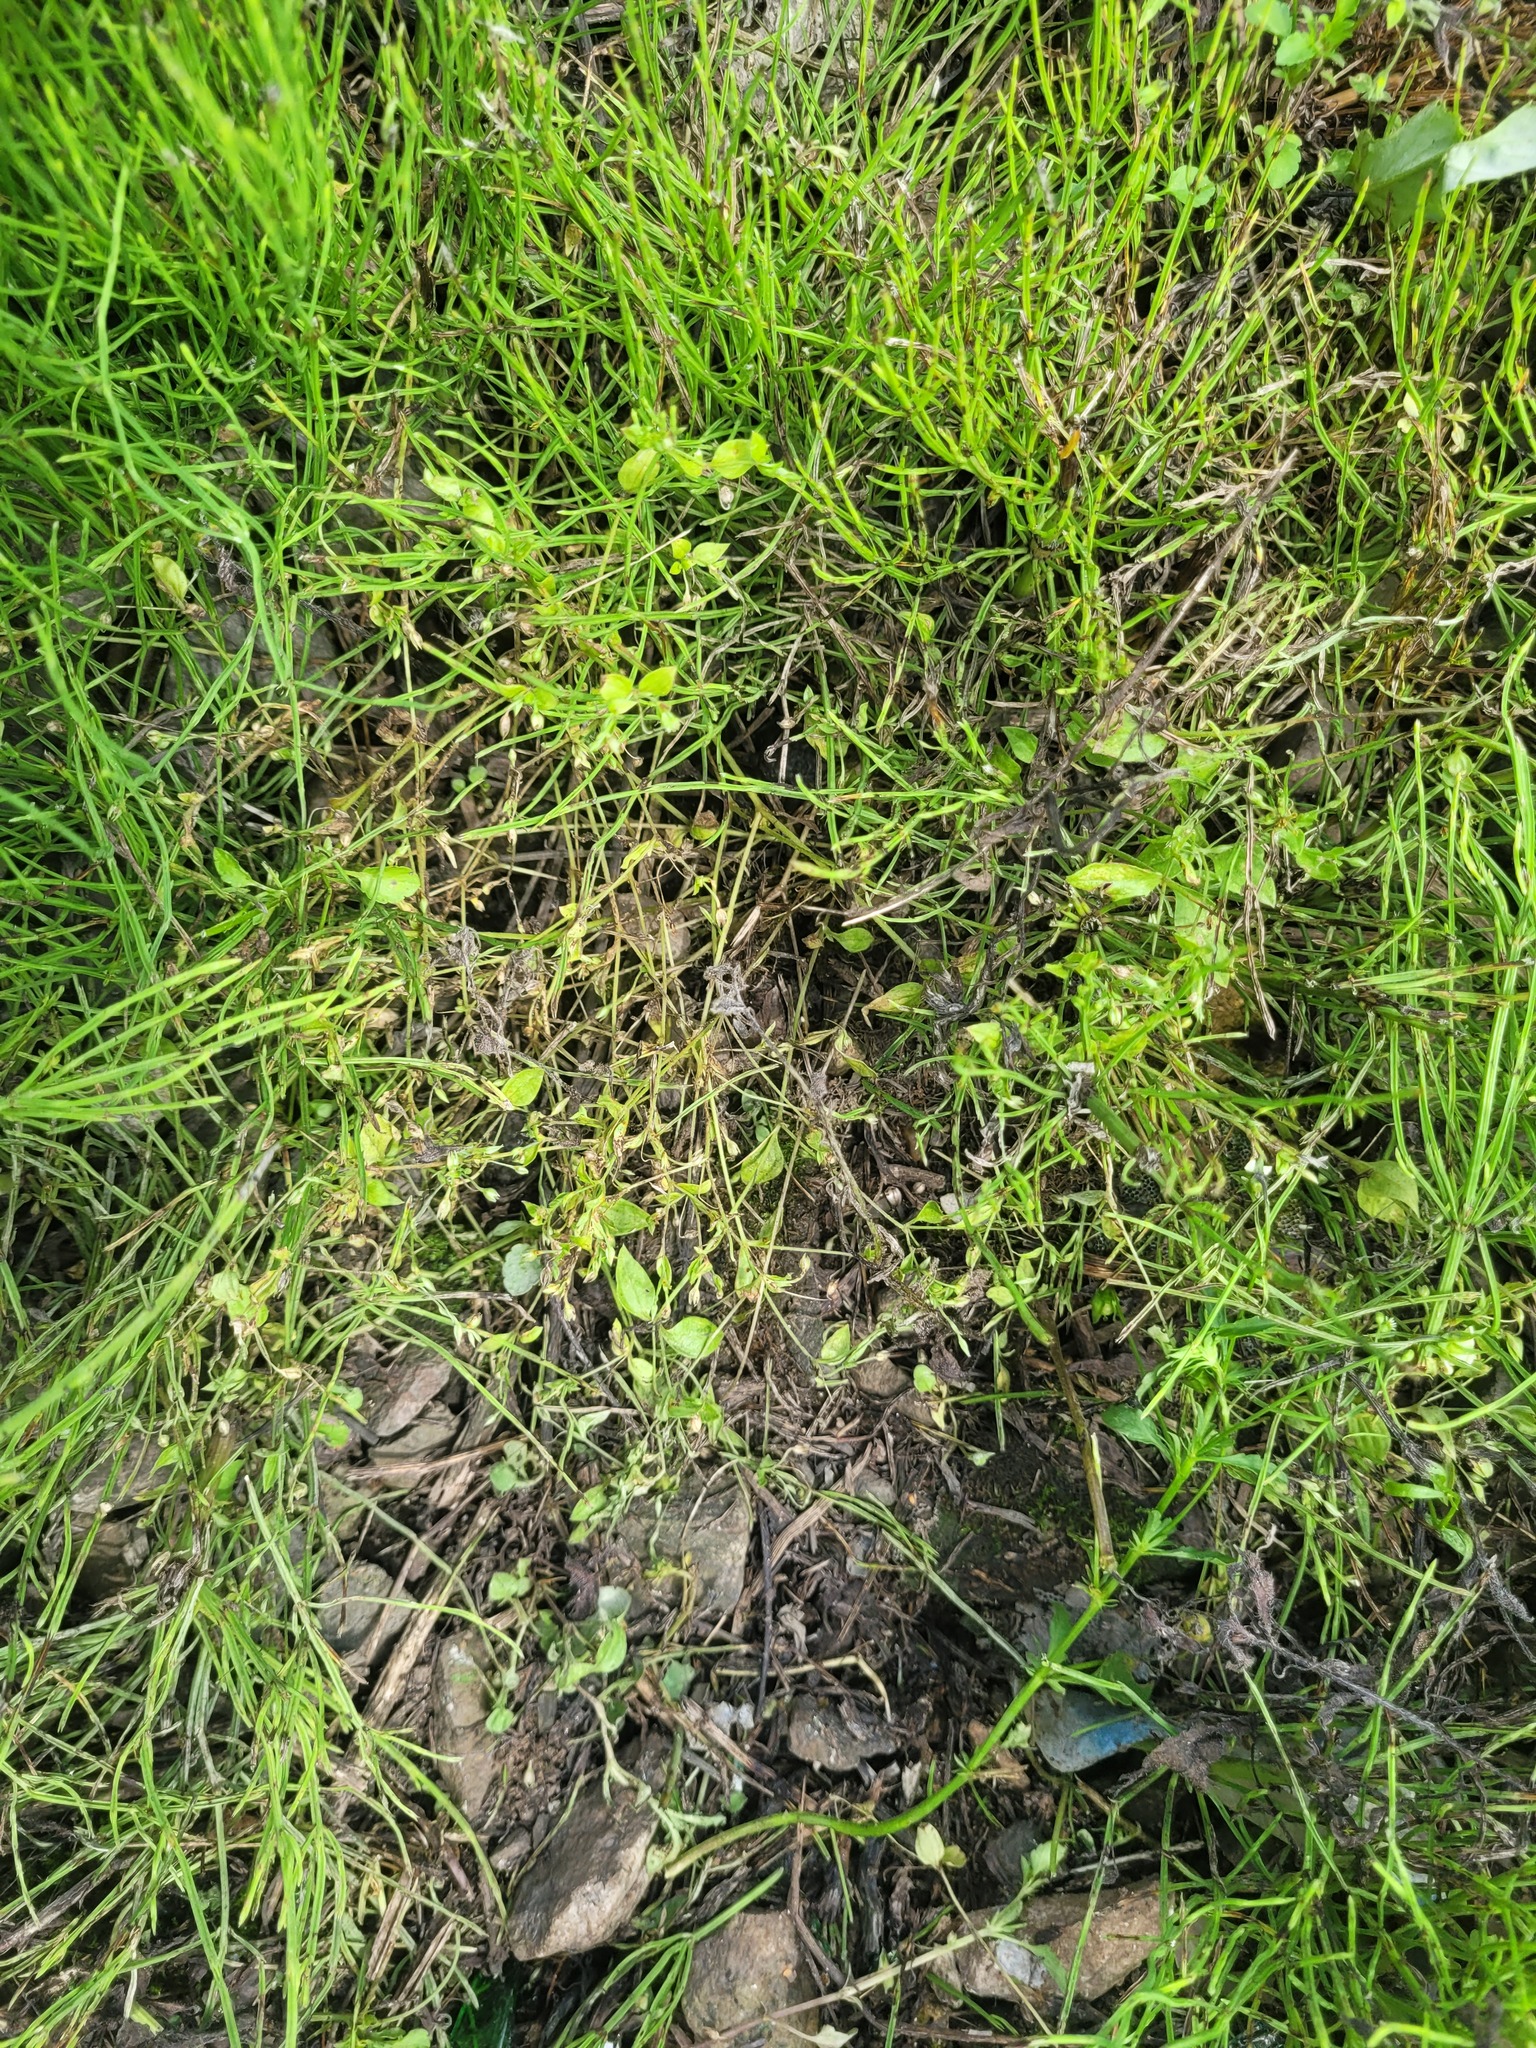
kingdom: Plantae
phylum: Tracheophyta
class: Magnoliopsida
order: Caryophyllales
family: Caryophyllaceae
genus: Moehringia
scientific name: Moehringia trinervia
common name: Three-nerved sandwort
